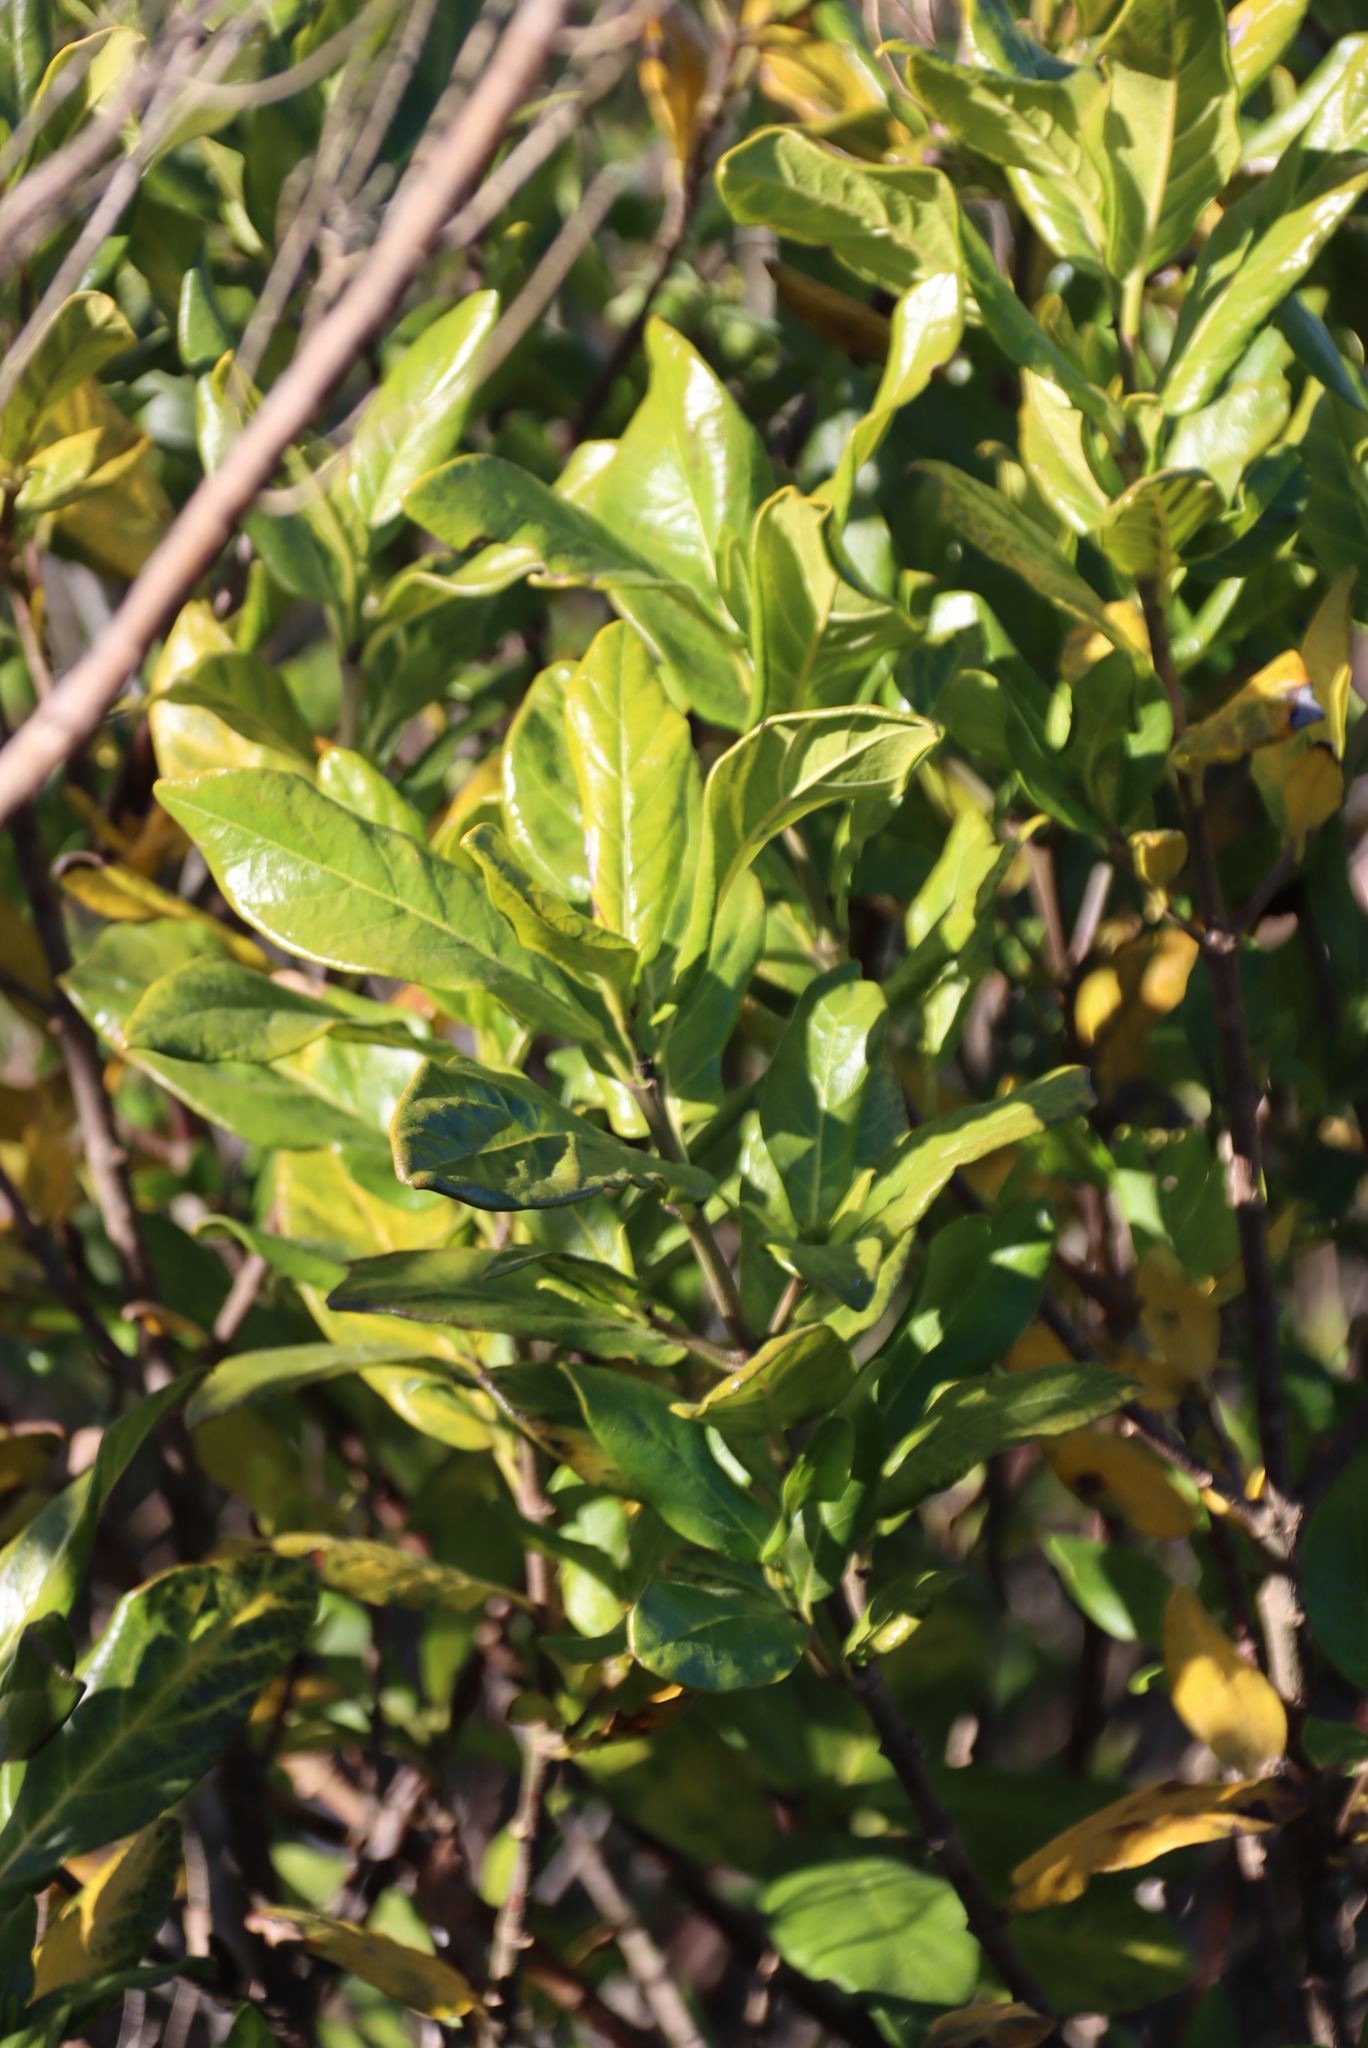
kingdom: Plantae
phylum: Tracheophyta
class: Magnoliopsida
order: Gentianales
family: Rubiaceae
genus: Burchellia
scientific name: Burchellia bubalina
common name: Wild pomegranate
